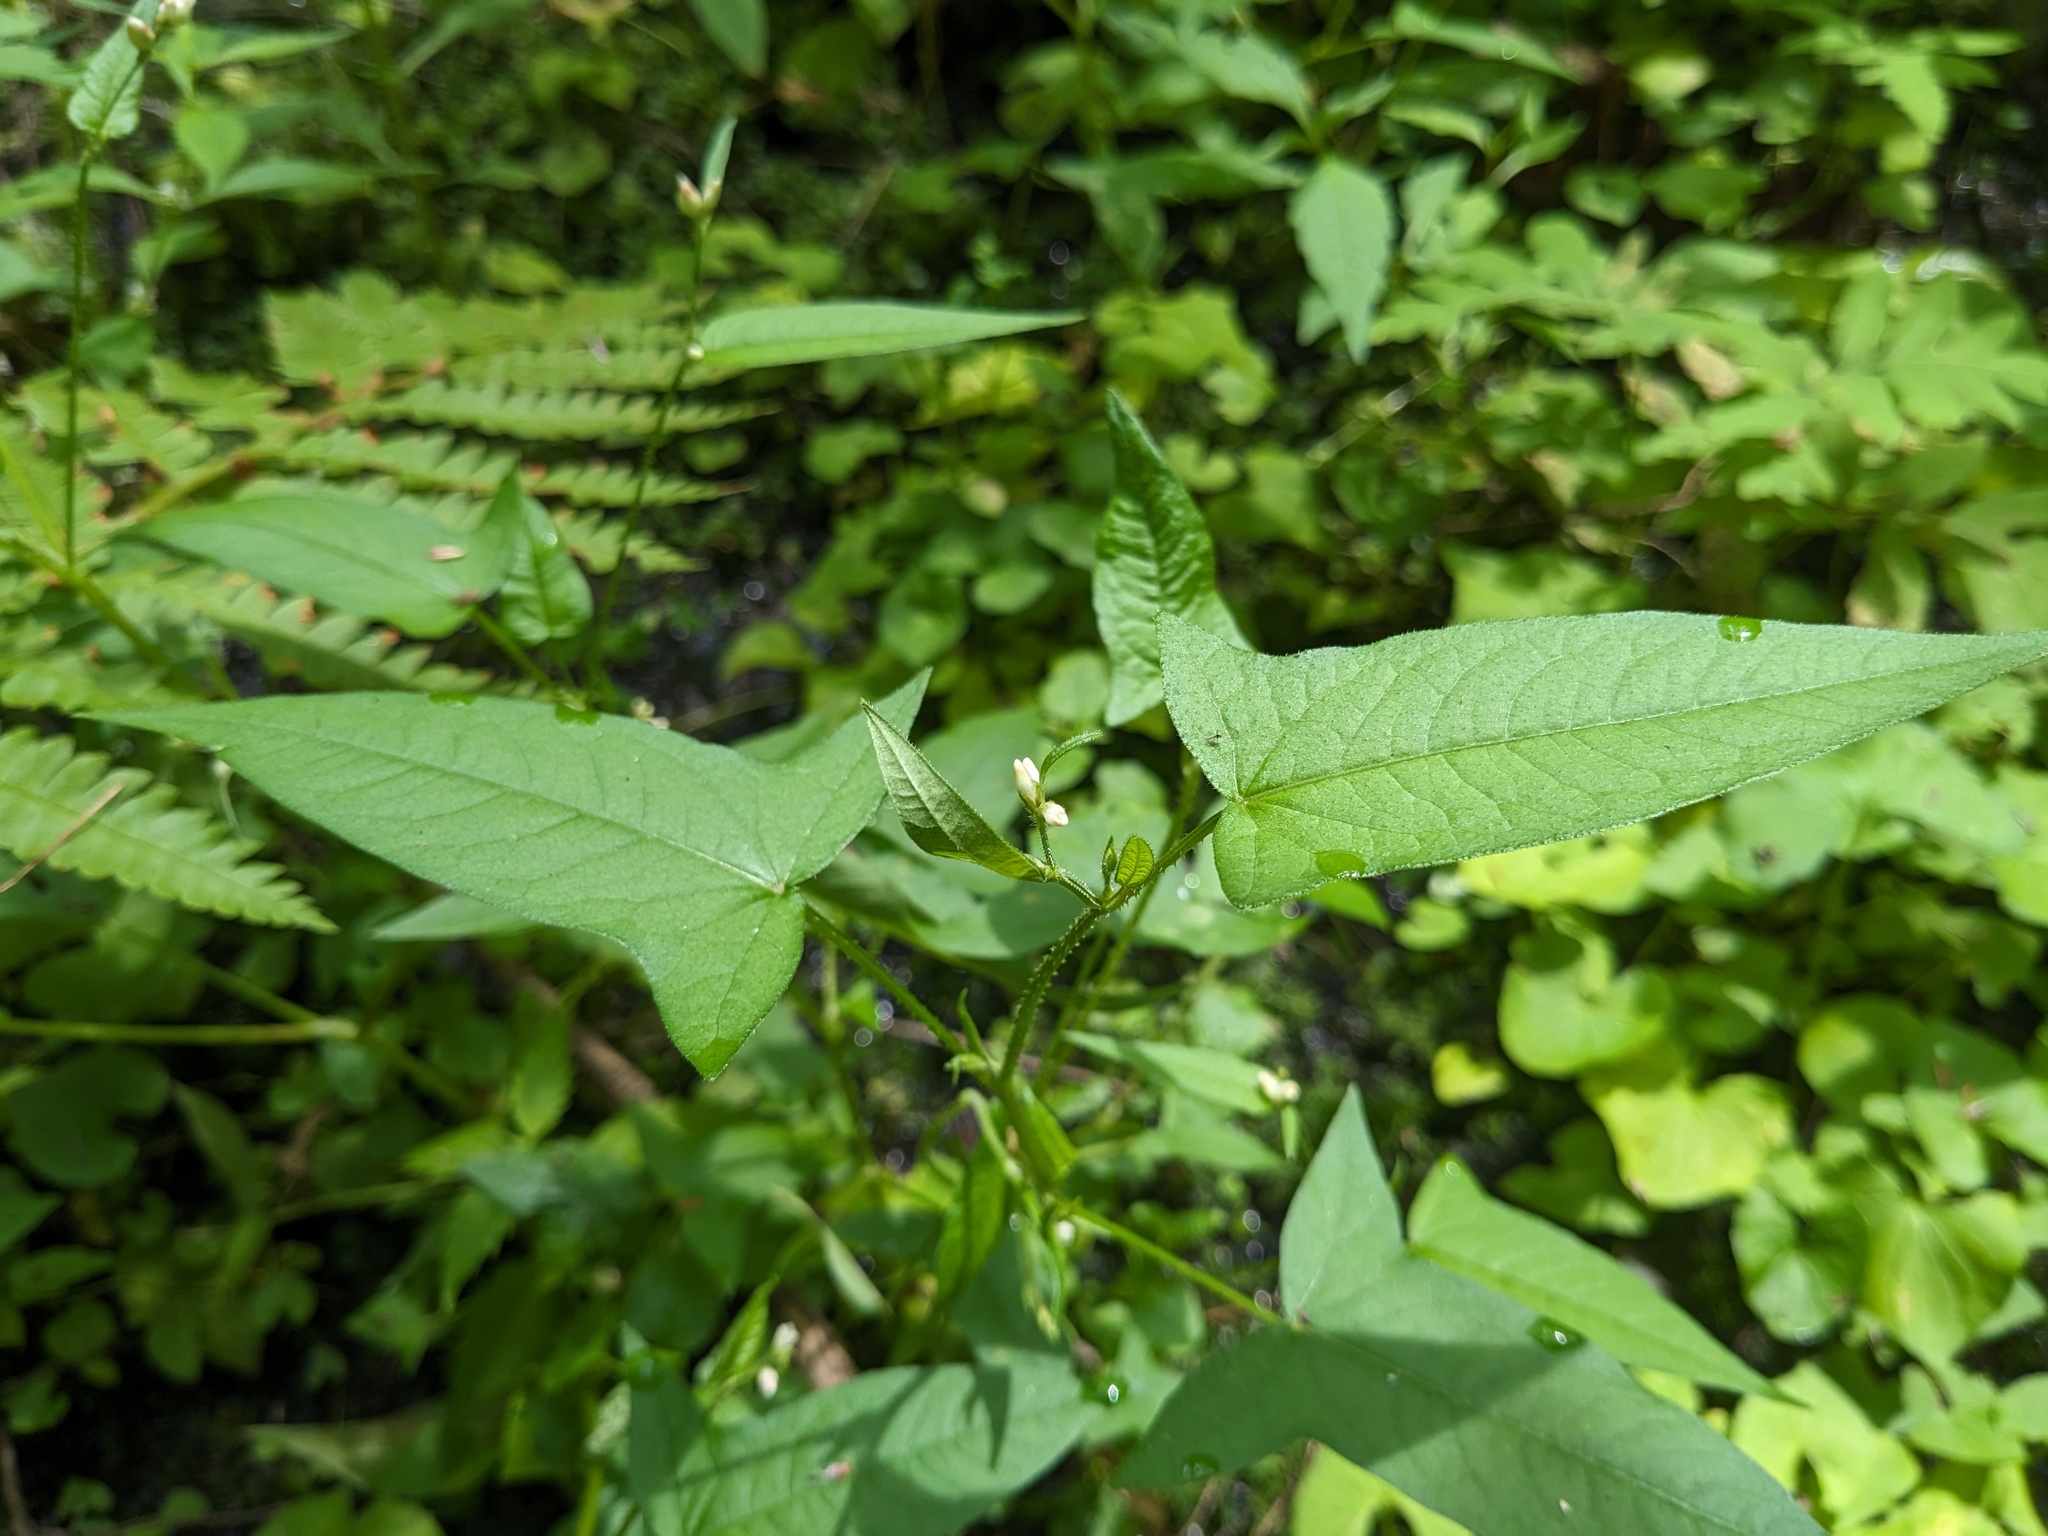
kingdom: Plantae
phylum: Tracheophyta
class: Magnoliopsida
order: Caryophyllales
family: Polygonaceae
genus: Persicaria
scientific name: Persicaria arifolia
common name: Halberd-leaved tear-thumb
